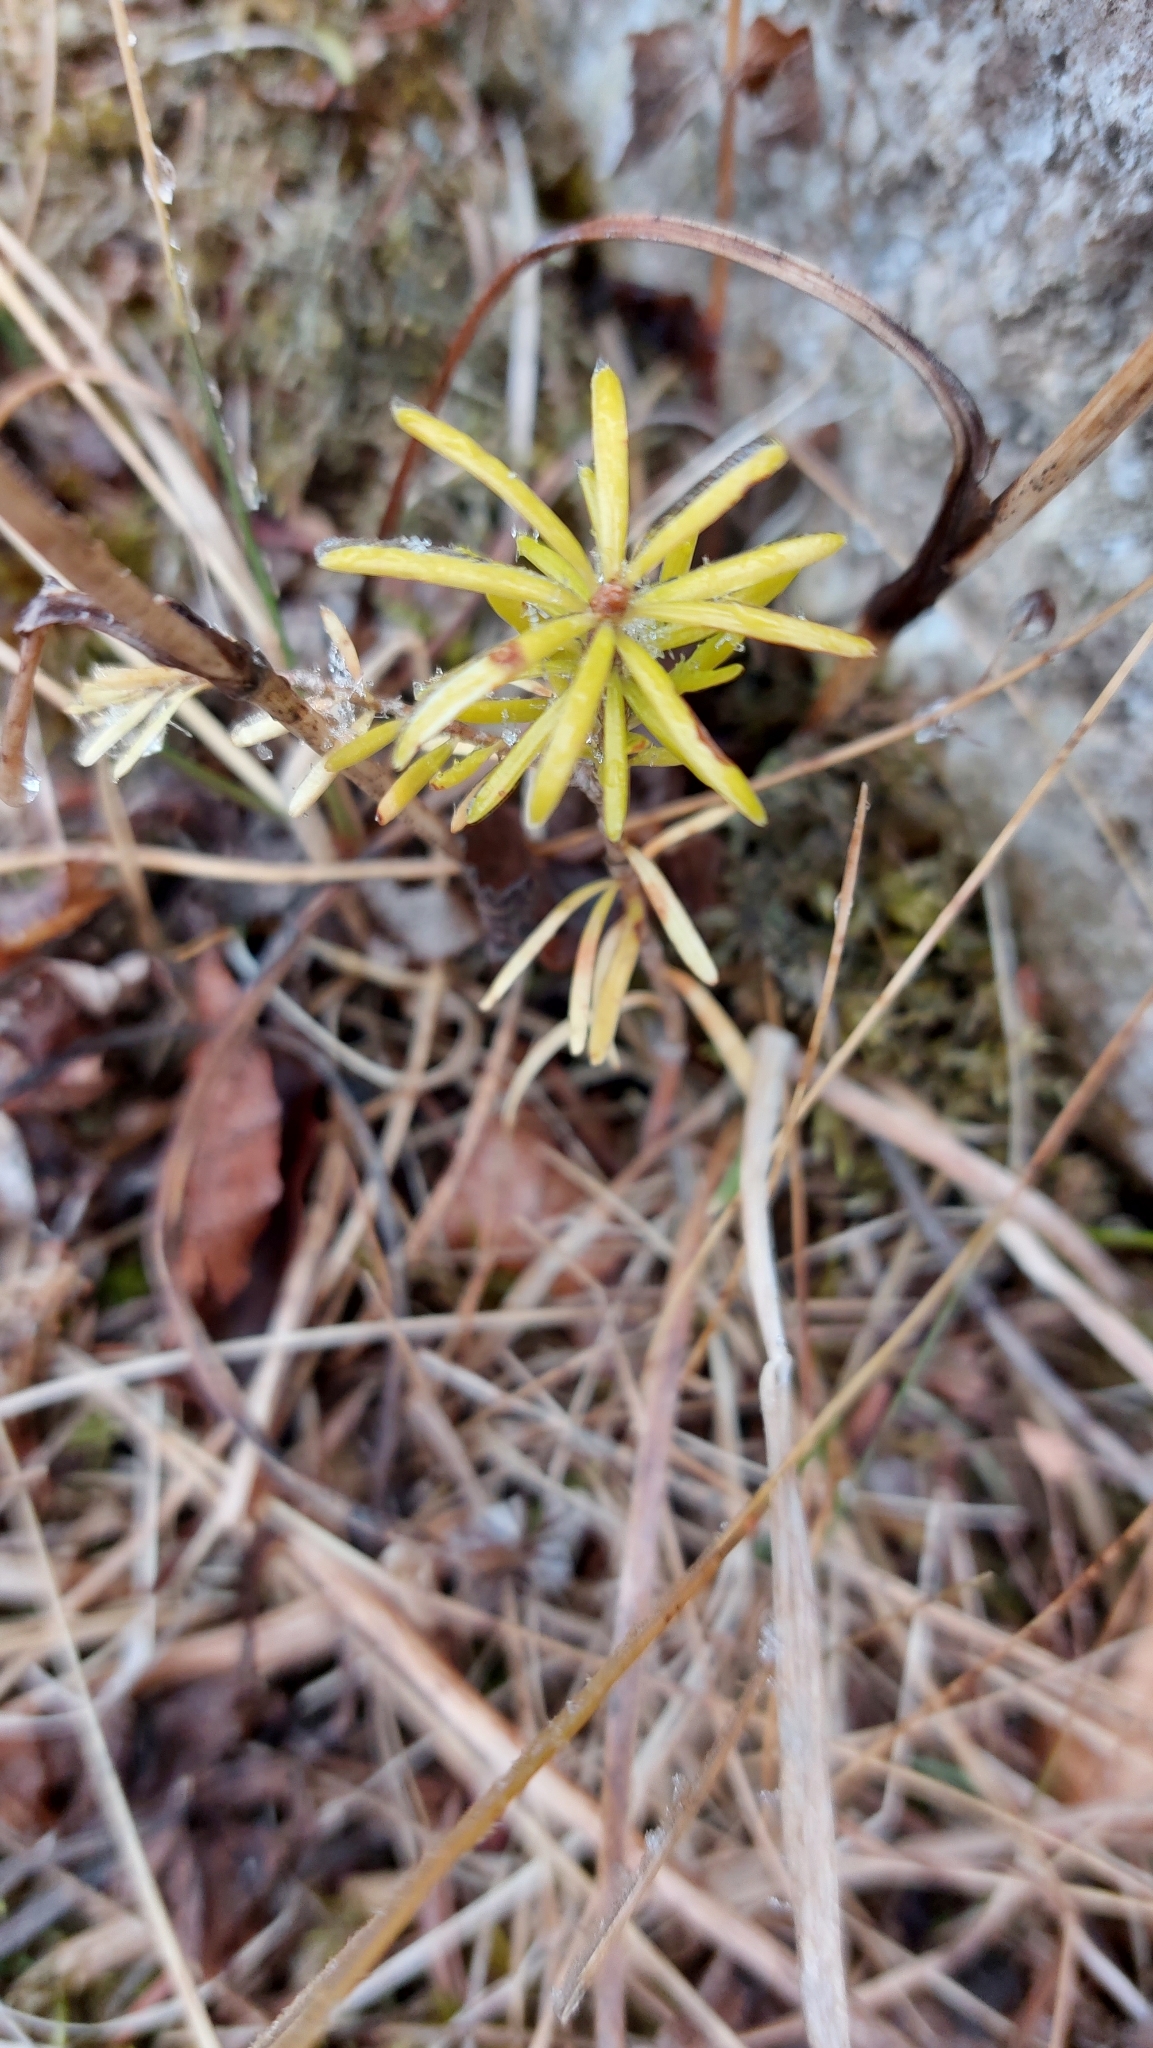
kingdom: Plantae
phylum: Tracheophyta
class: Pinopsida
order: Pinales
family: Pinaceae
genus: Abies
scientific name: Abies alba
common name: Silver fir
